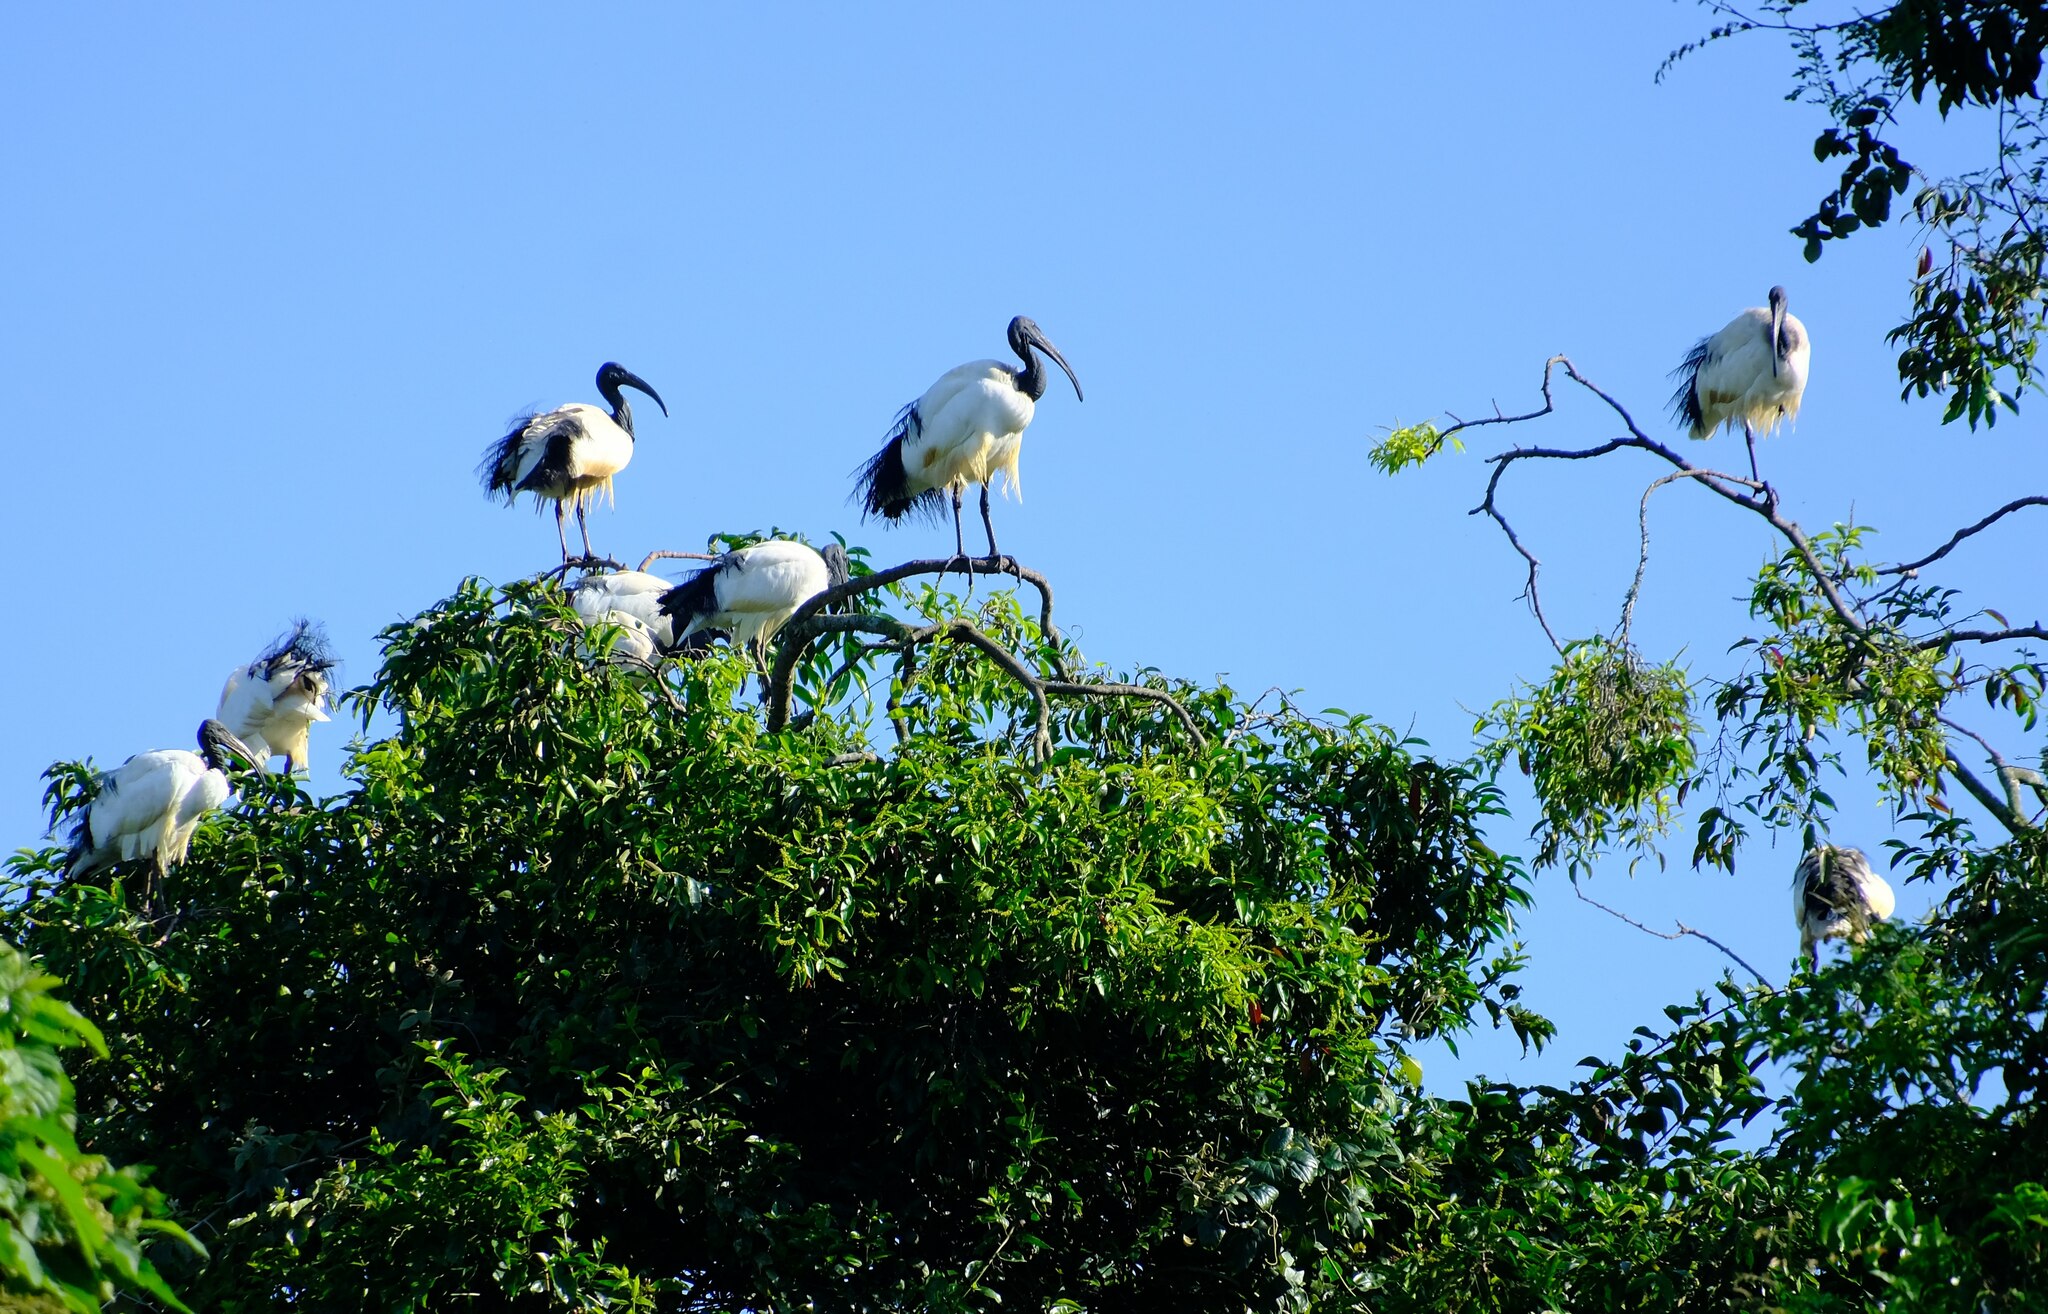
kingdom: Animalia
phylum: Chordata
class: Aves
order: Pelecaniformes
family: Threskiornithidae
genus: Threskiornis
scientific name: Threskiornis aethiopicus
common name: Sacred ibis
